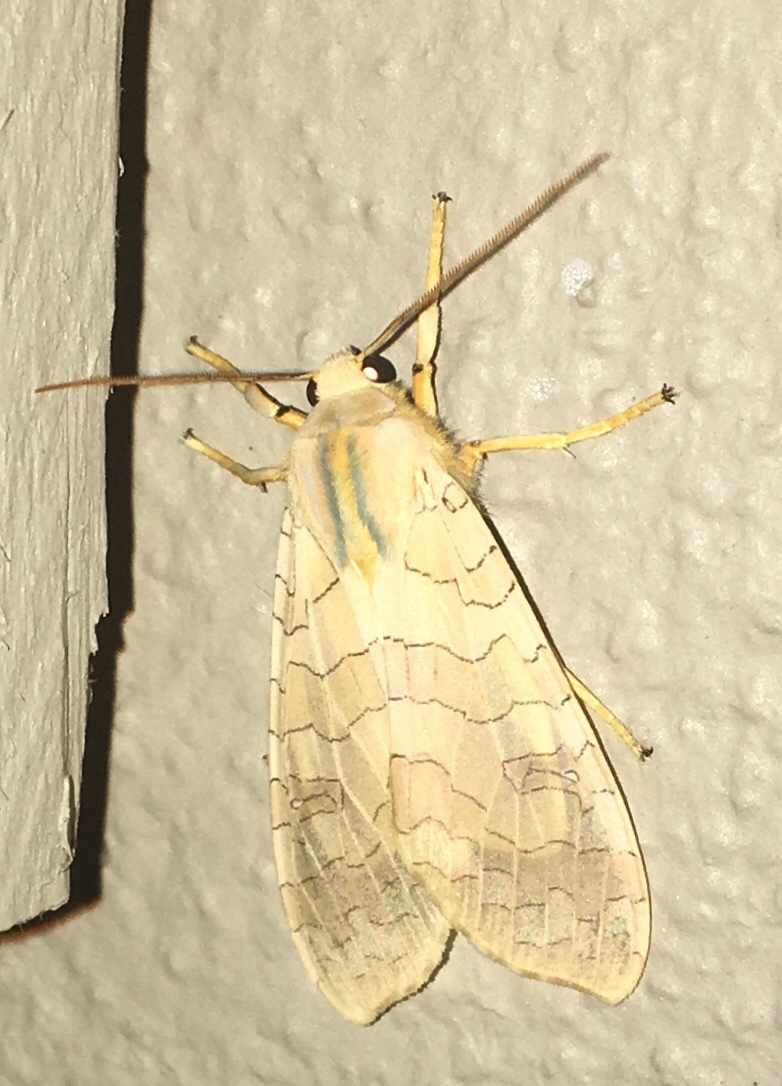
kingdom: Animalia
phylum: Arthropoda
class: Insecta
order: Lepidoptera
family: Erebidae
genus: Halysidota
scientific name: Halysidota
